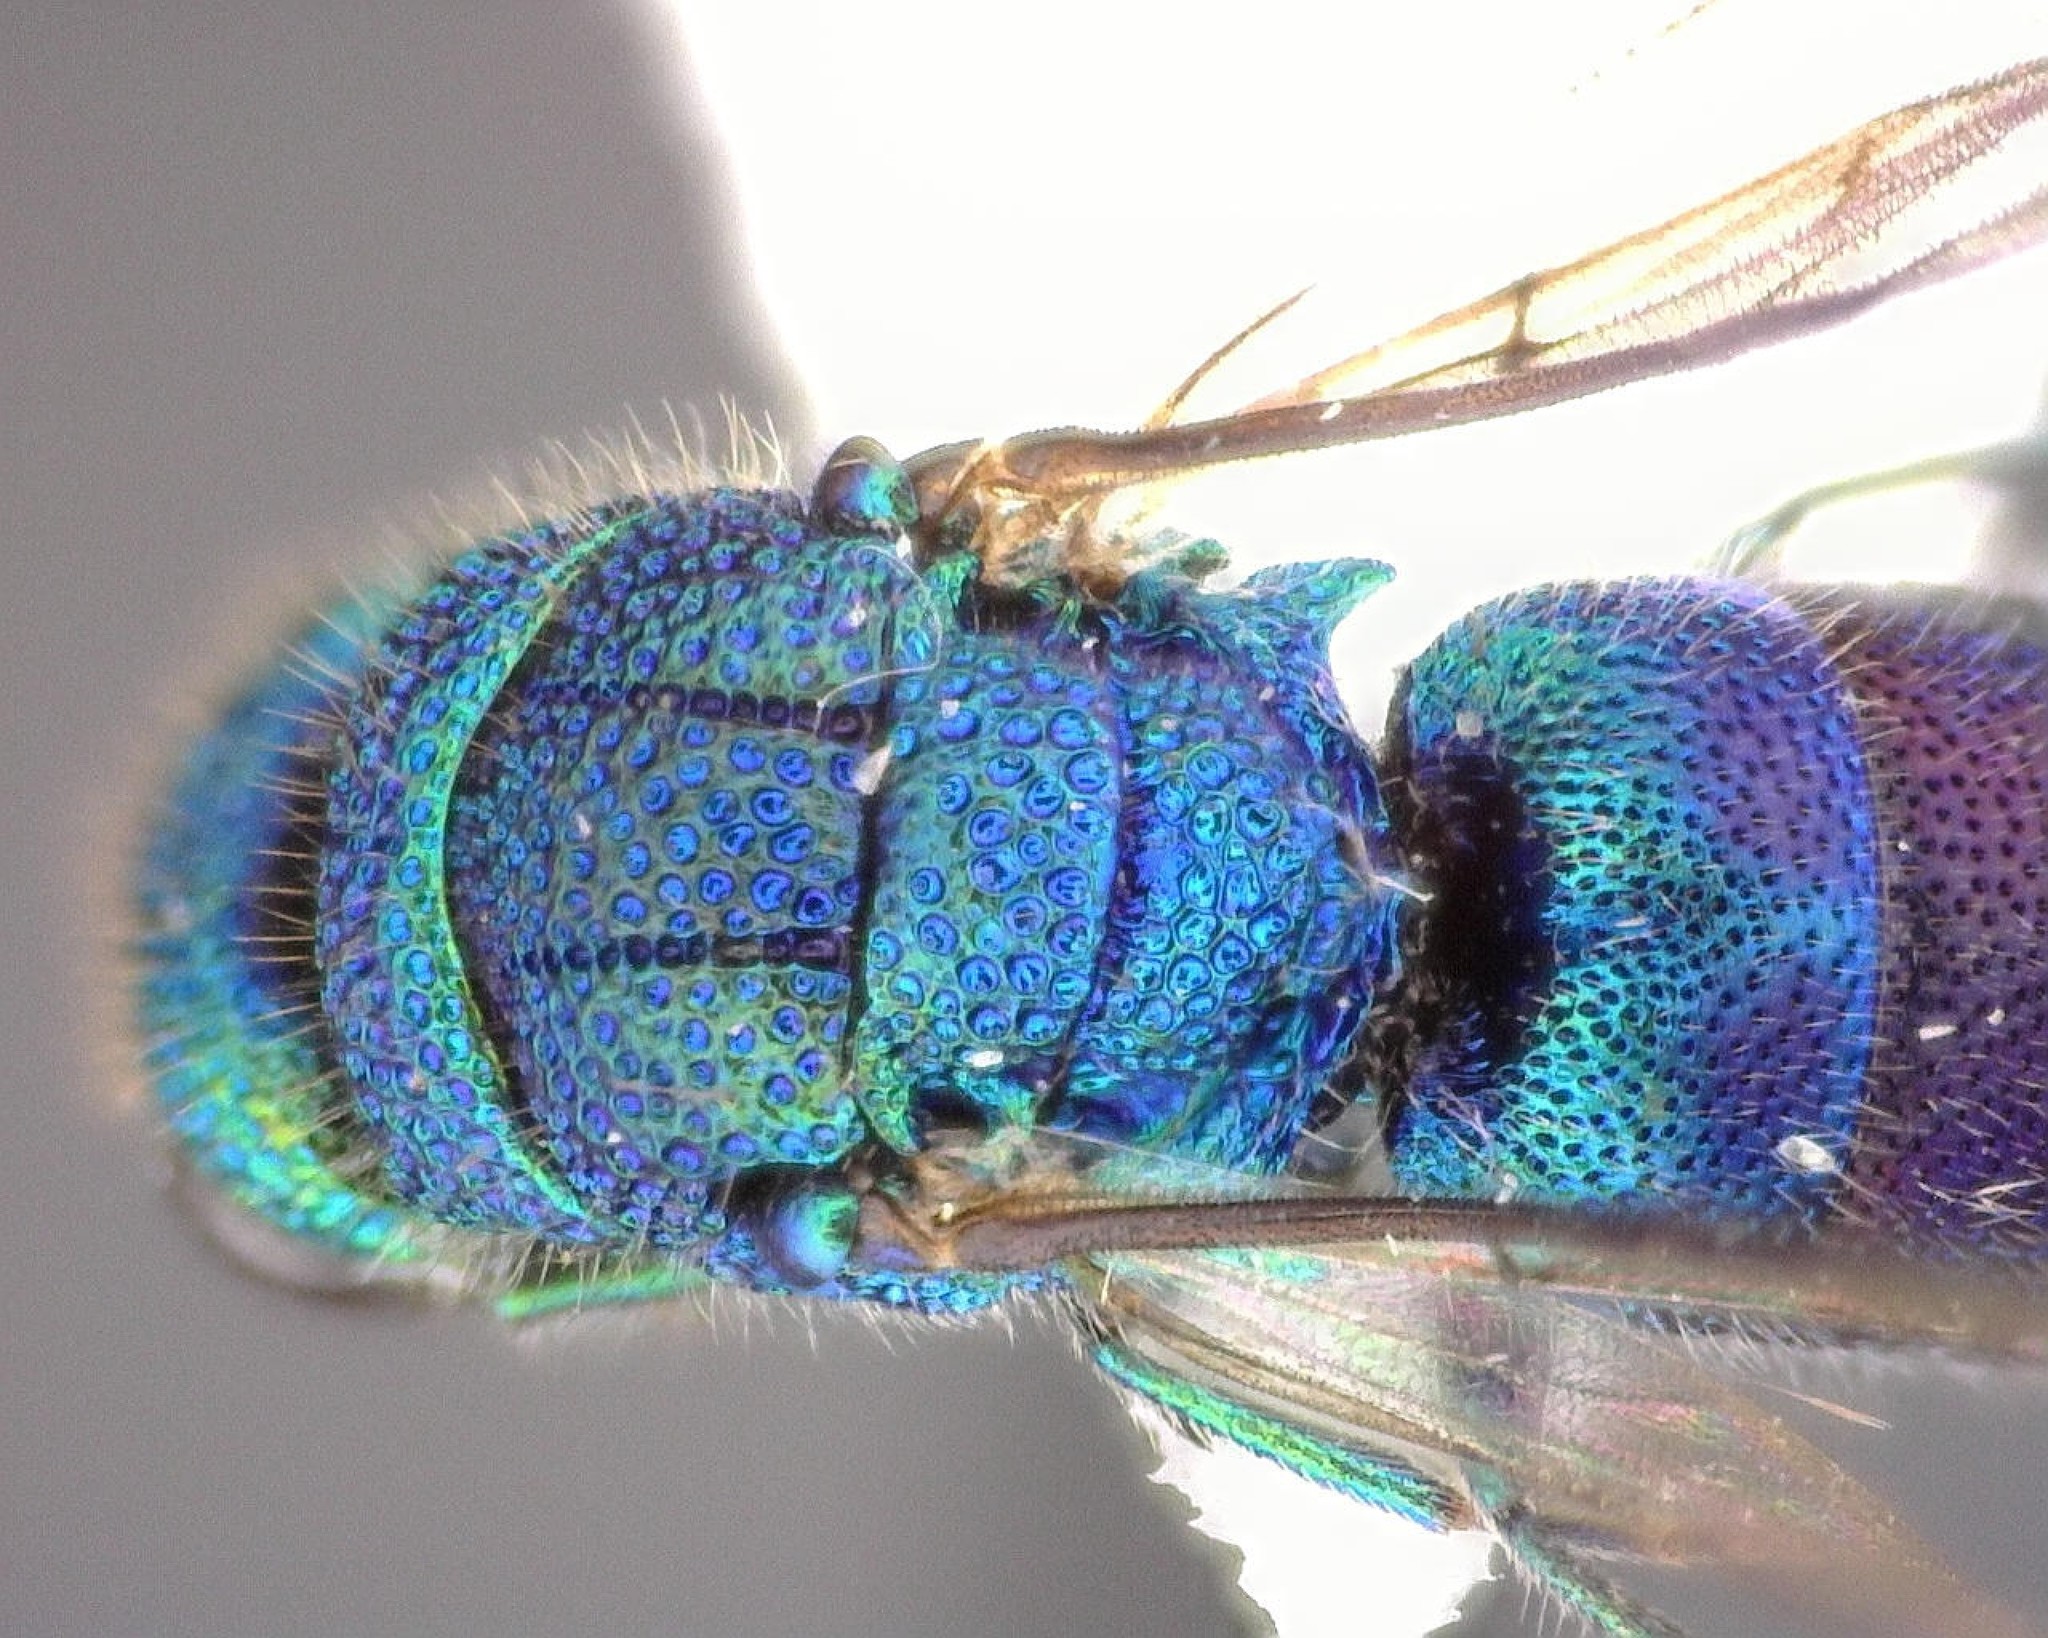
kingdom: Animalia
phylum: Arthropoda
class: Insecta
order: Hymenoptera
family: Chrysididae
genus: Caenochrysis
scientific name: Caenochrysis doriae
